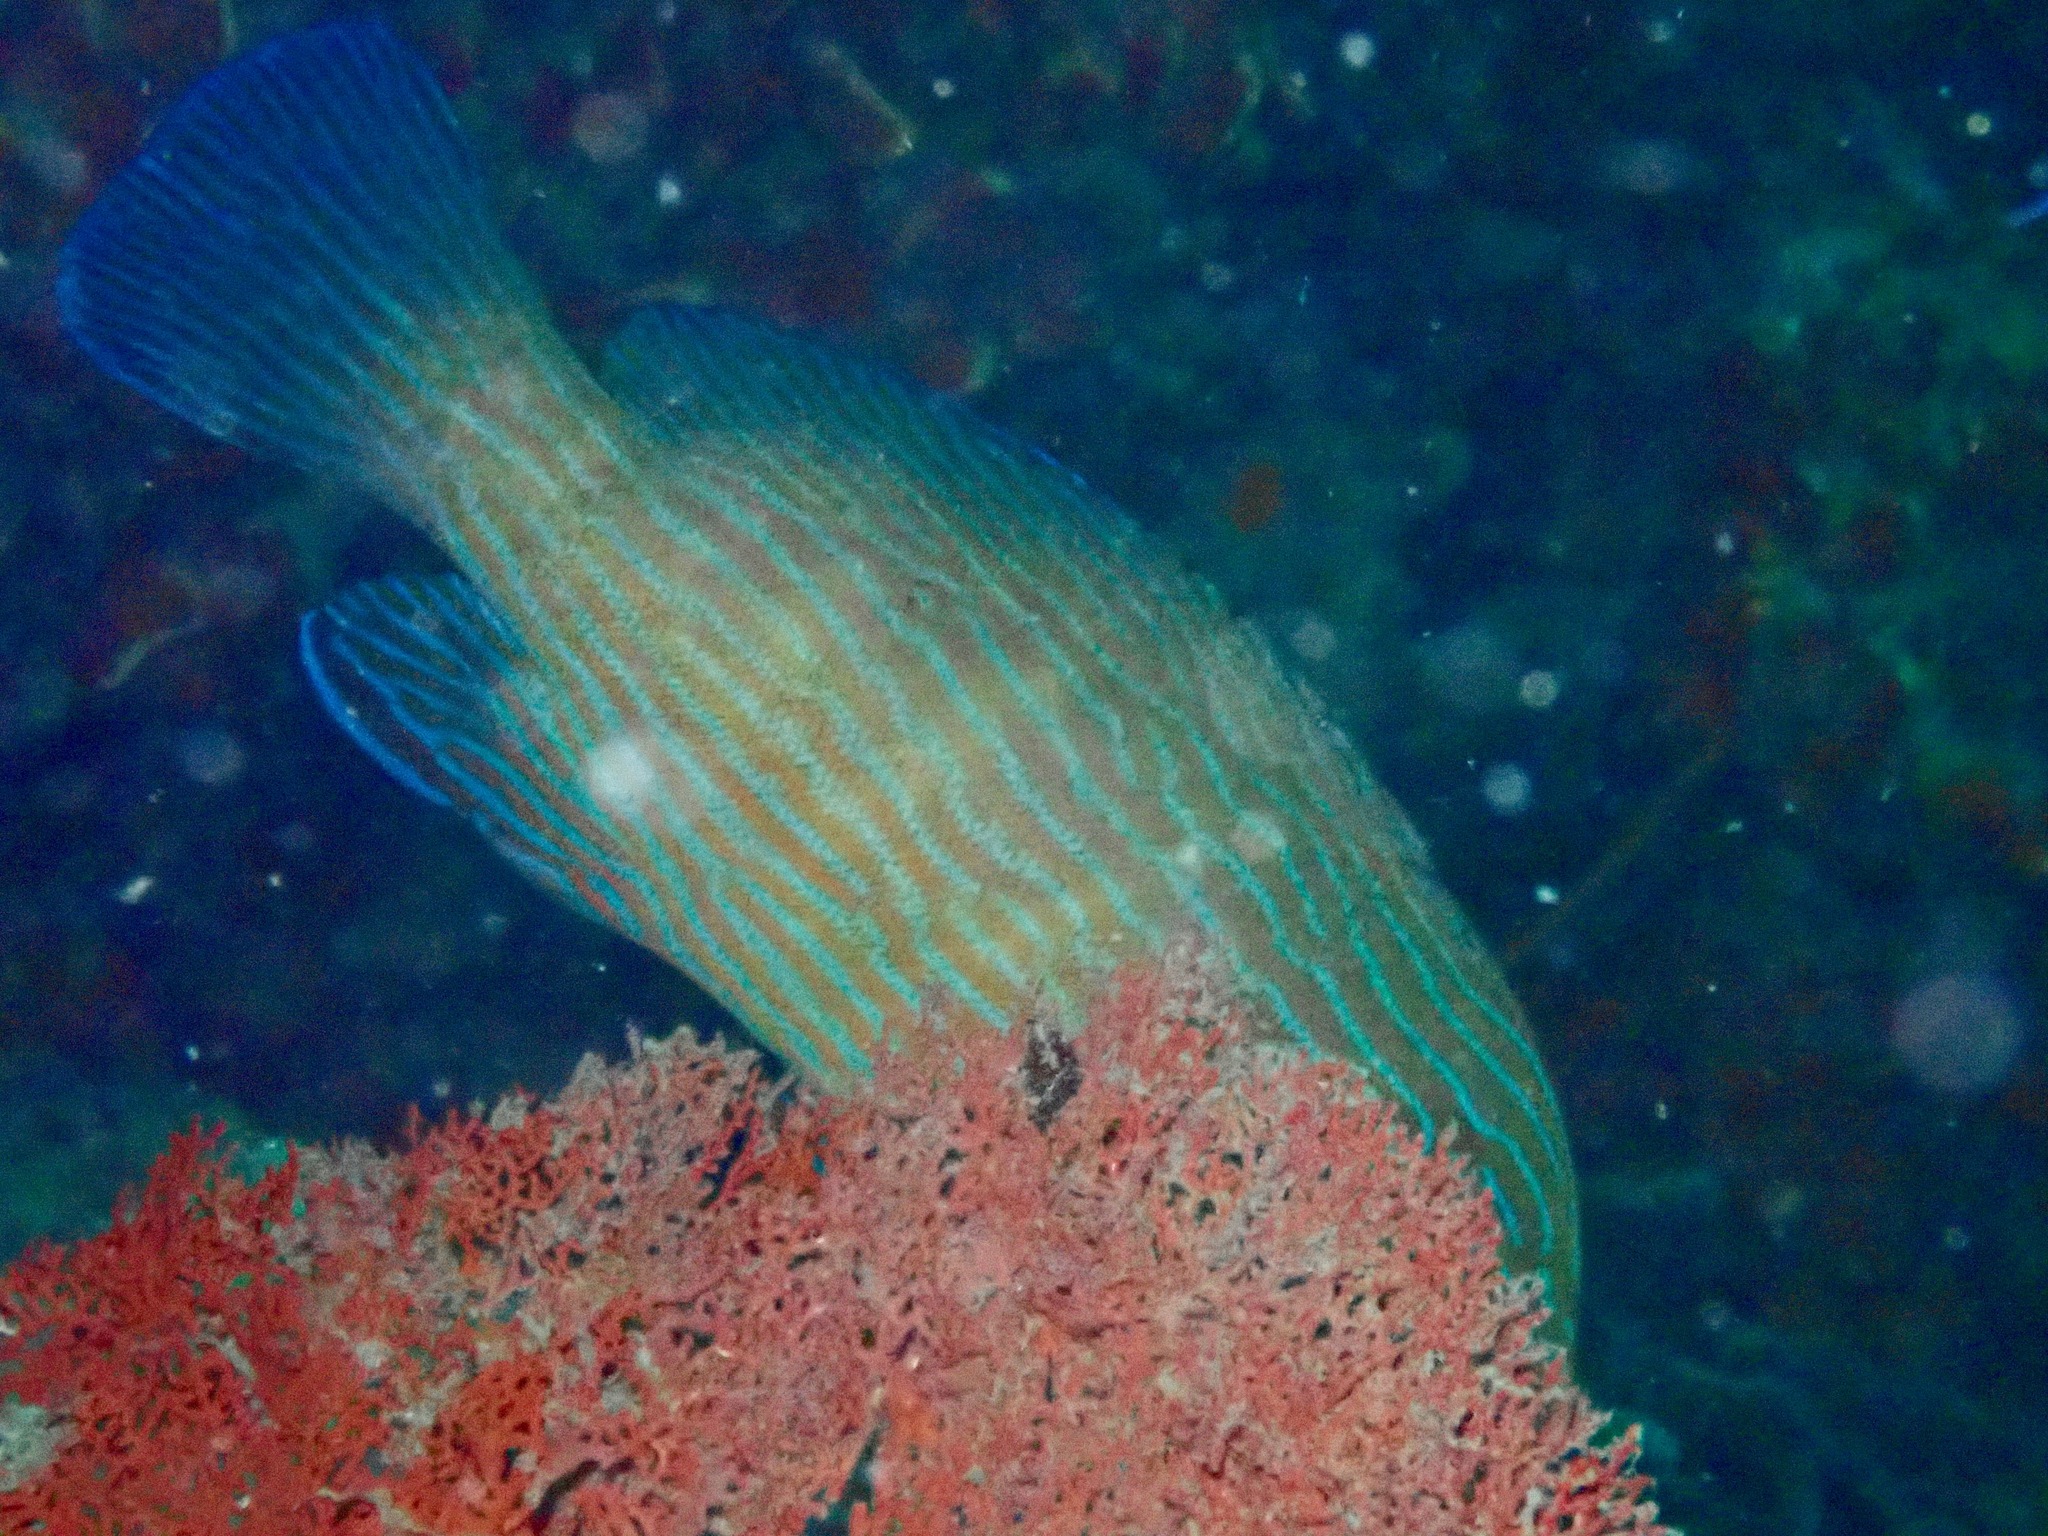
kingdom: Animalia
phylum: Chordata
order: Perciformes
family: Serranidae
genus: Cephalopholis
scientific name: Cephalopholis formosa
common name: Bluelined hind
